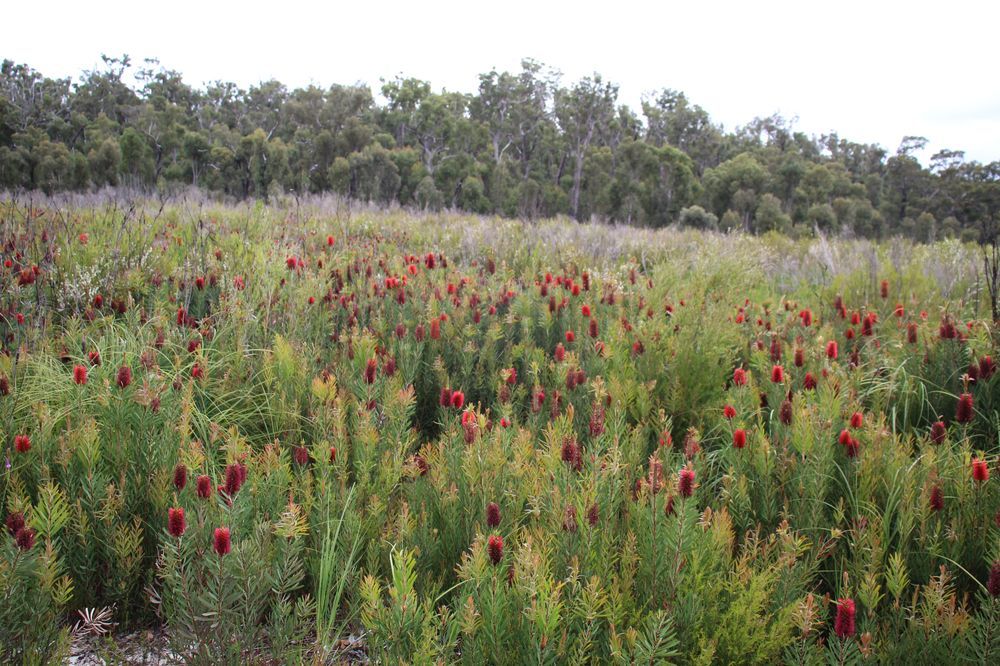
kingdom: Plantae
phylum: Tracheophyta
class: Magnoliopsida
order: Myrtales
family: Myrtaceae
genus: Melaleuca
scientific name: Melaleuca glauca
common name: Albany-bottlebrush
